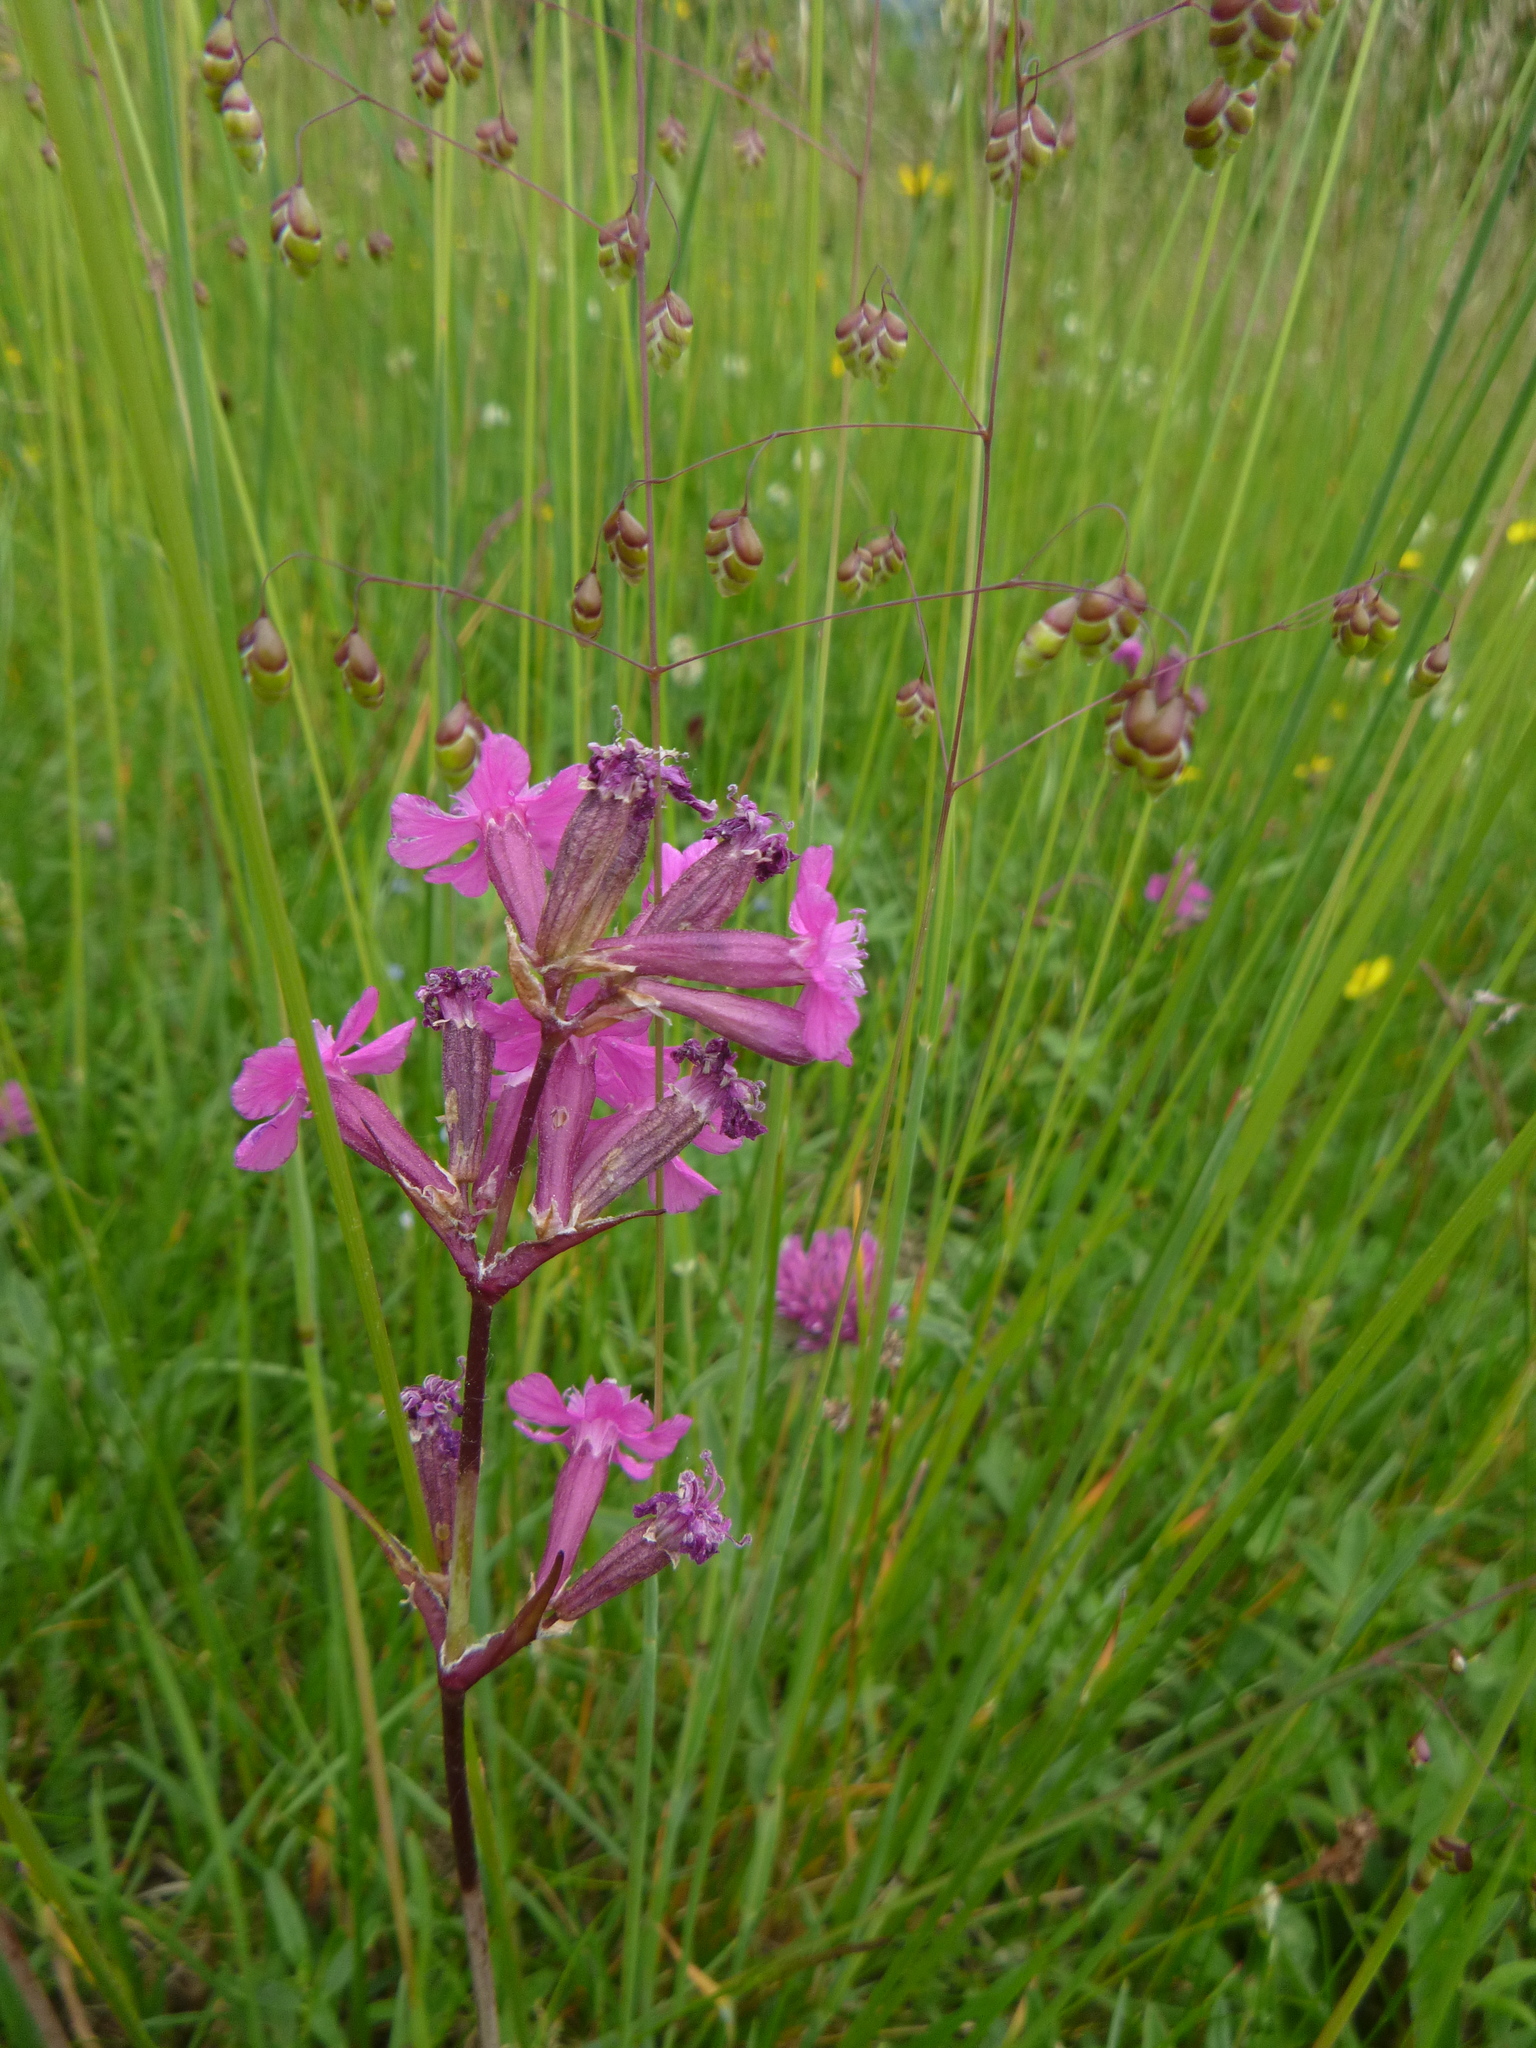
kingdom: Plantae
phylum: Tracheophyta
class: Magnoliopsida
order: Caryophyllales
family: Caryophyllaceae
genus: Viscaria
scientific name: Viscaria vulgaris
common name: Clammy campion
